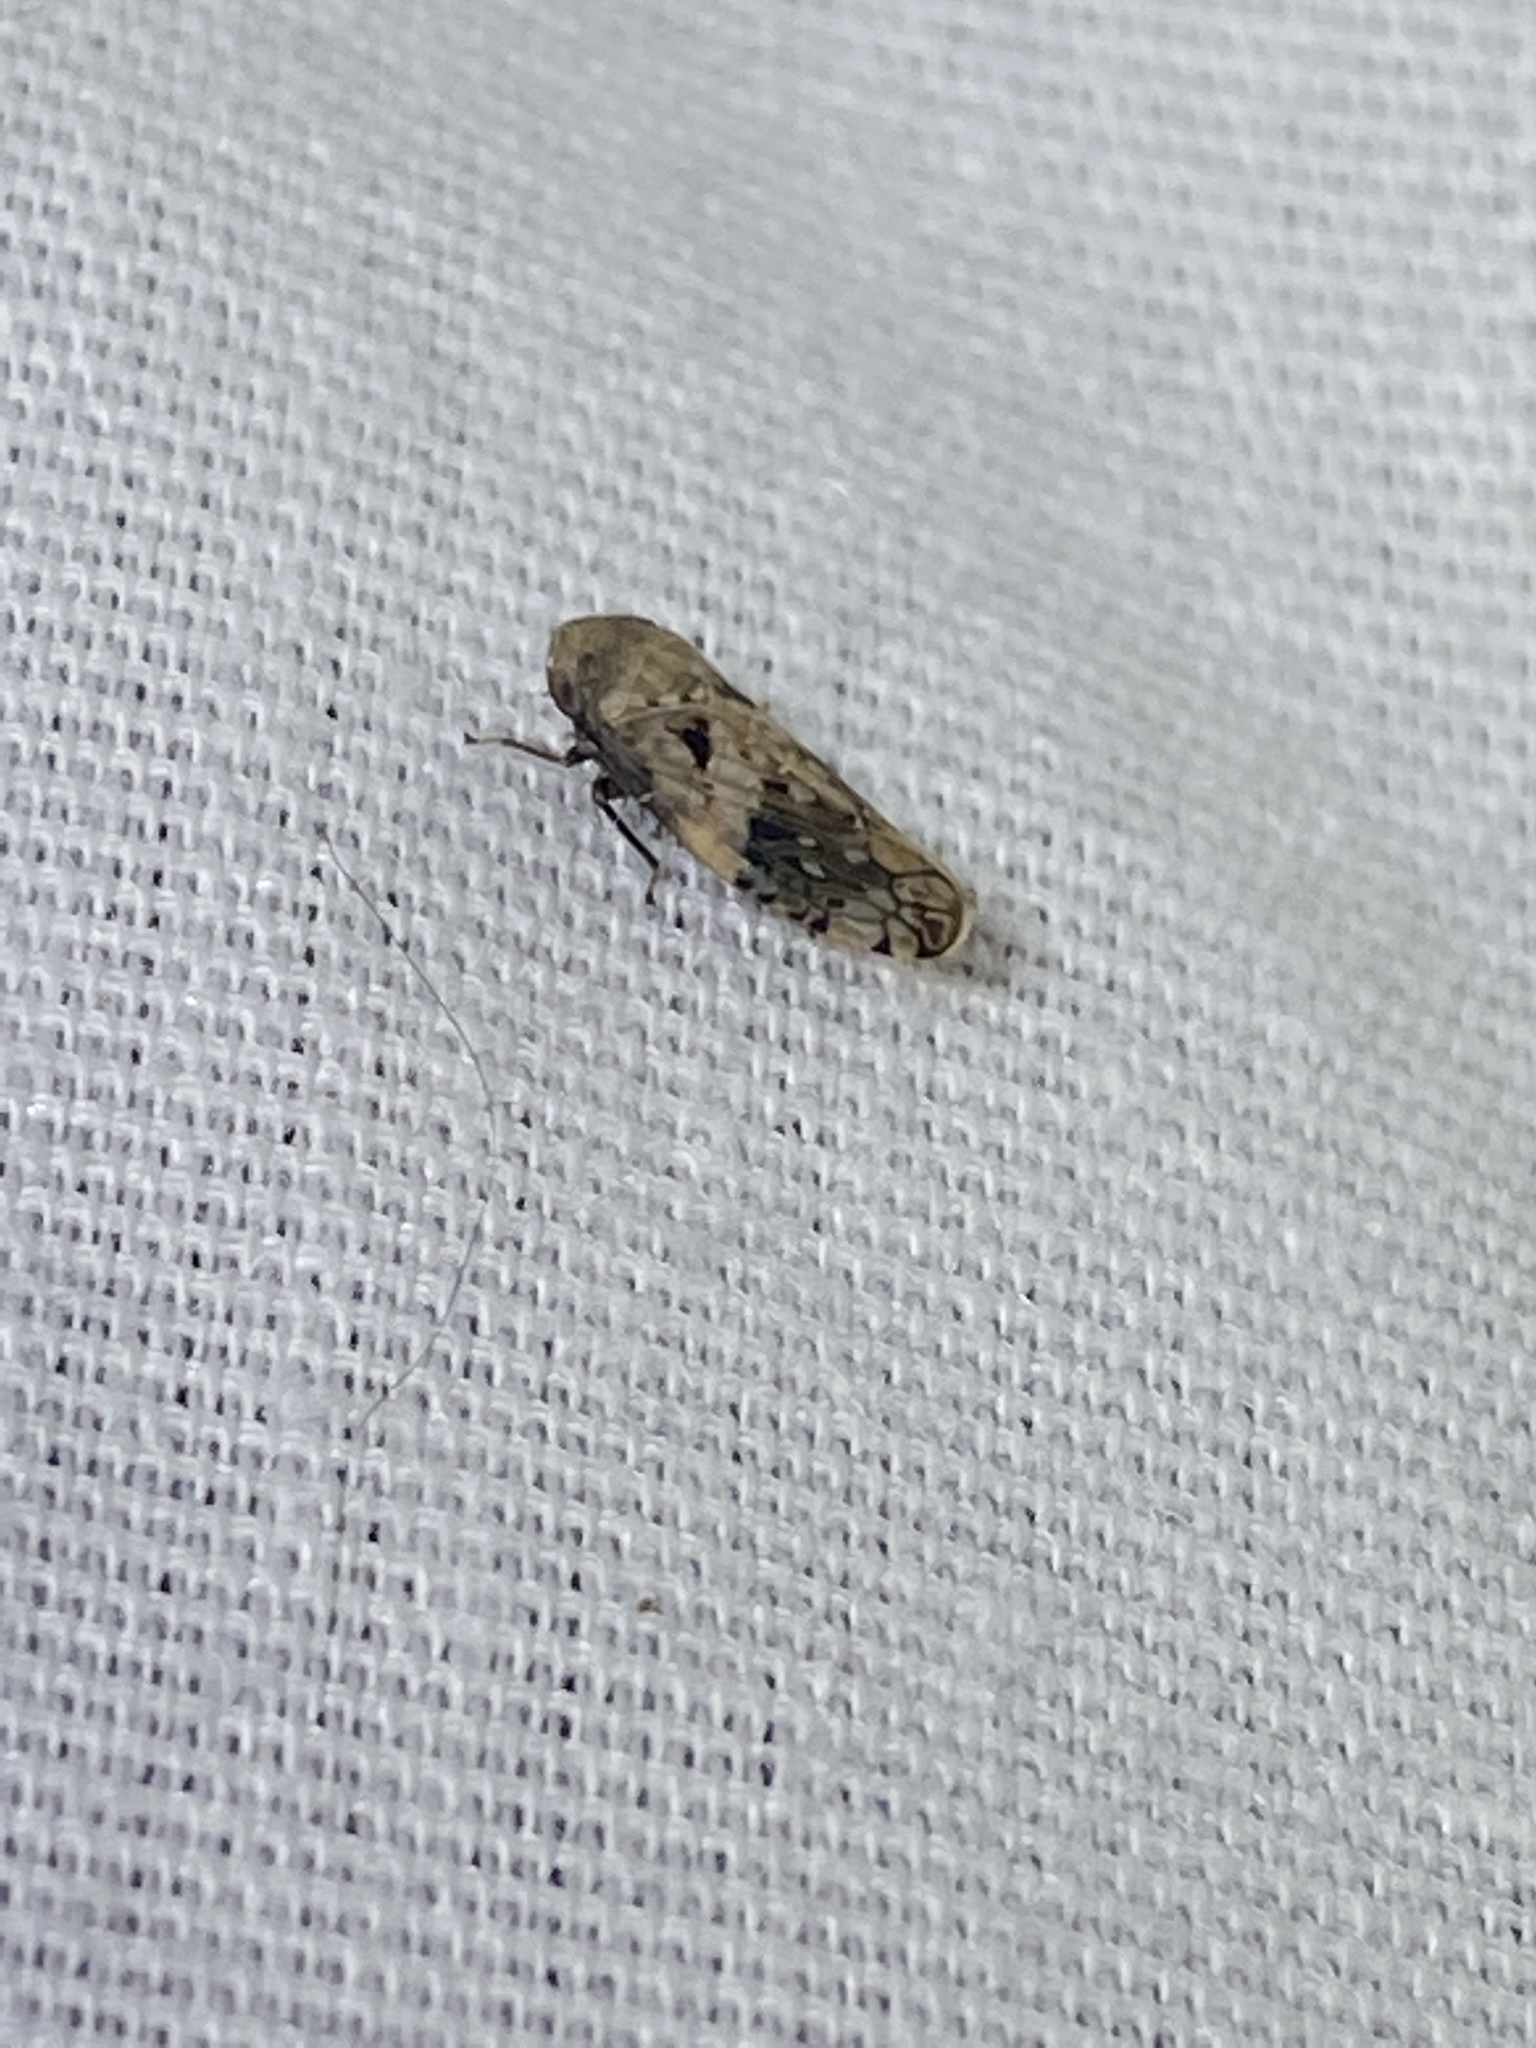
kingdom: Animalia
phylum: Arthropoda
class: Insecta
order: Hemiptera
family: Cicadellidae
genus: Menosoma
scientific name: Menosoma cinctum
